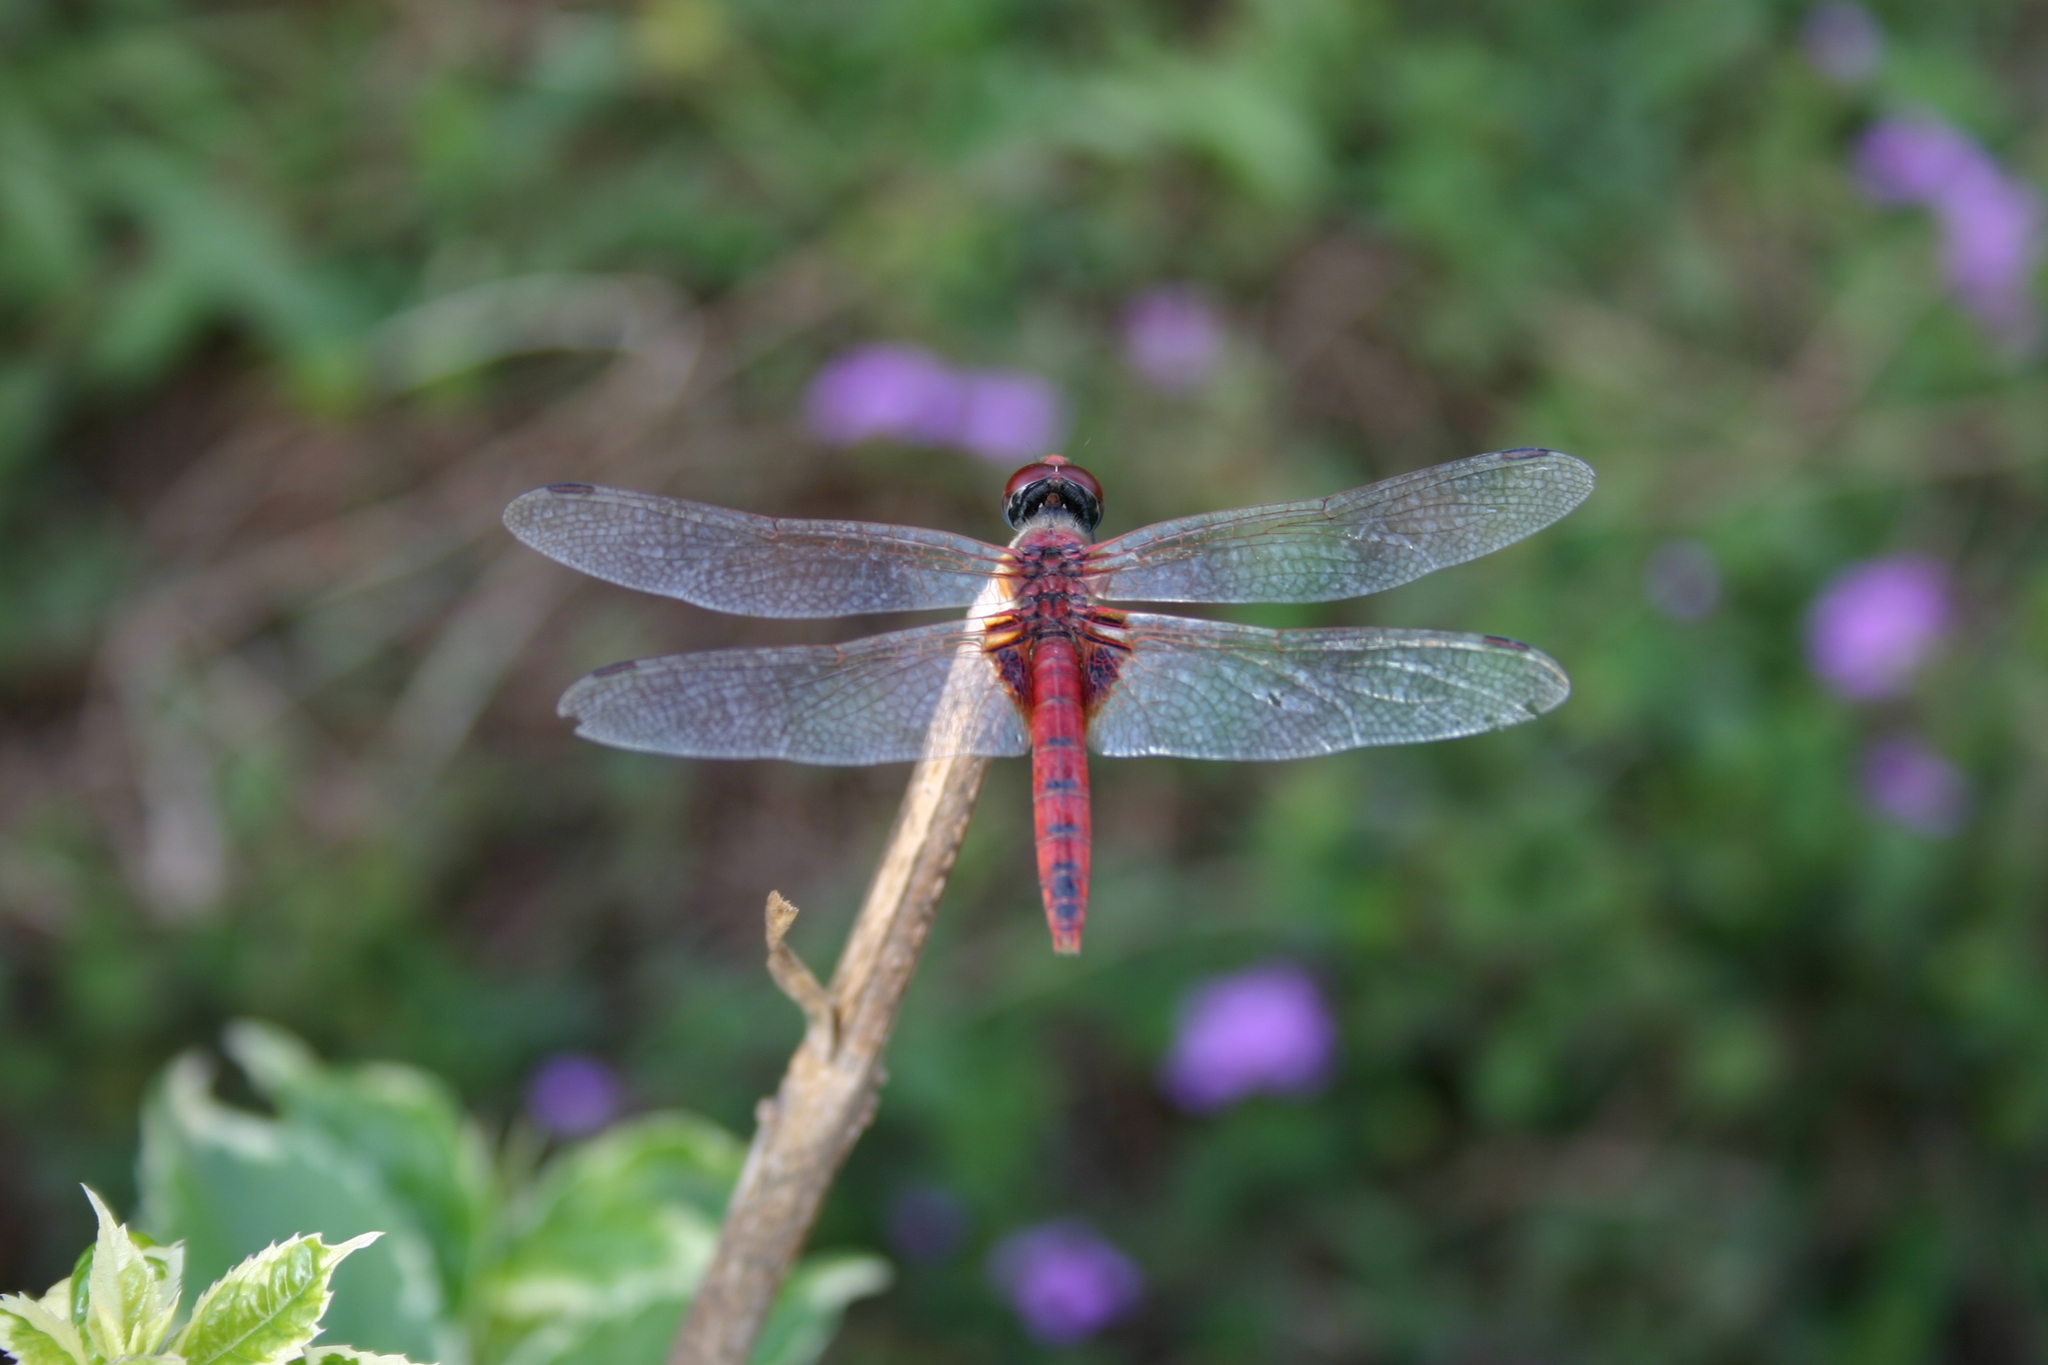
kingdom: Animalia
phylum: Arthropoda
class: Insecta
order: Odonata
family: Libellulidae
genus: Urothemis
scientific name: Urothemis signata
